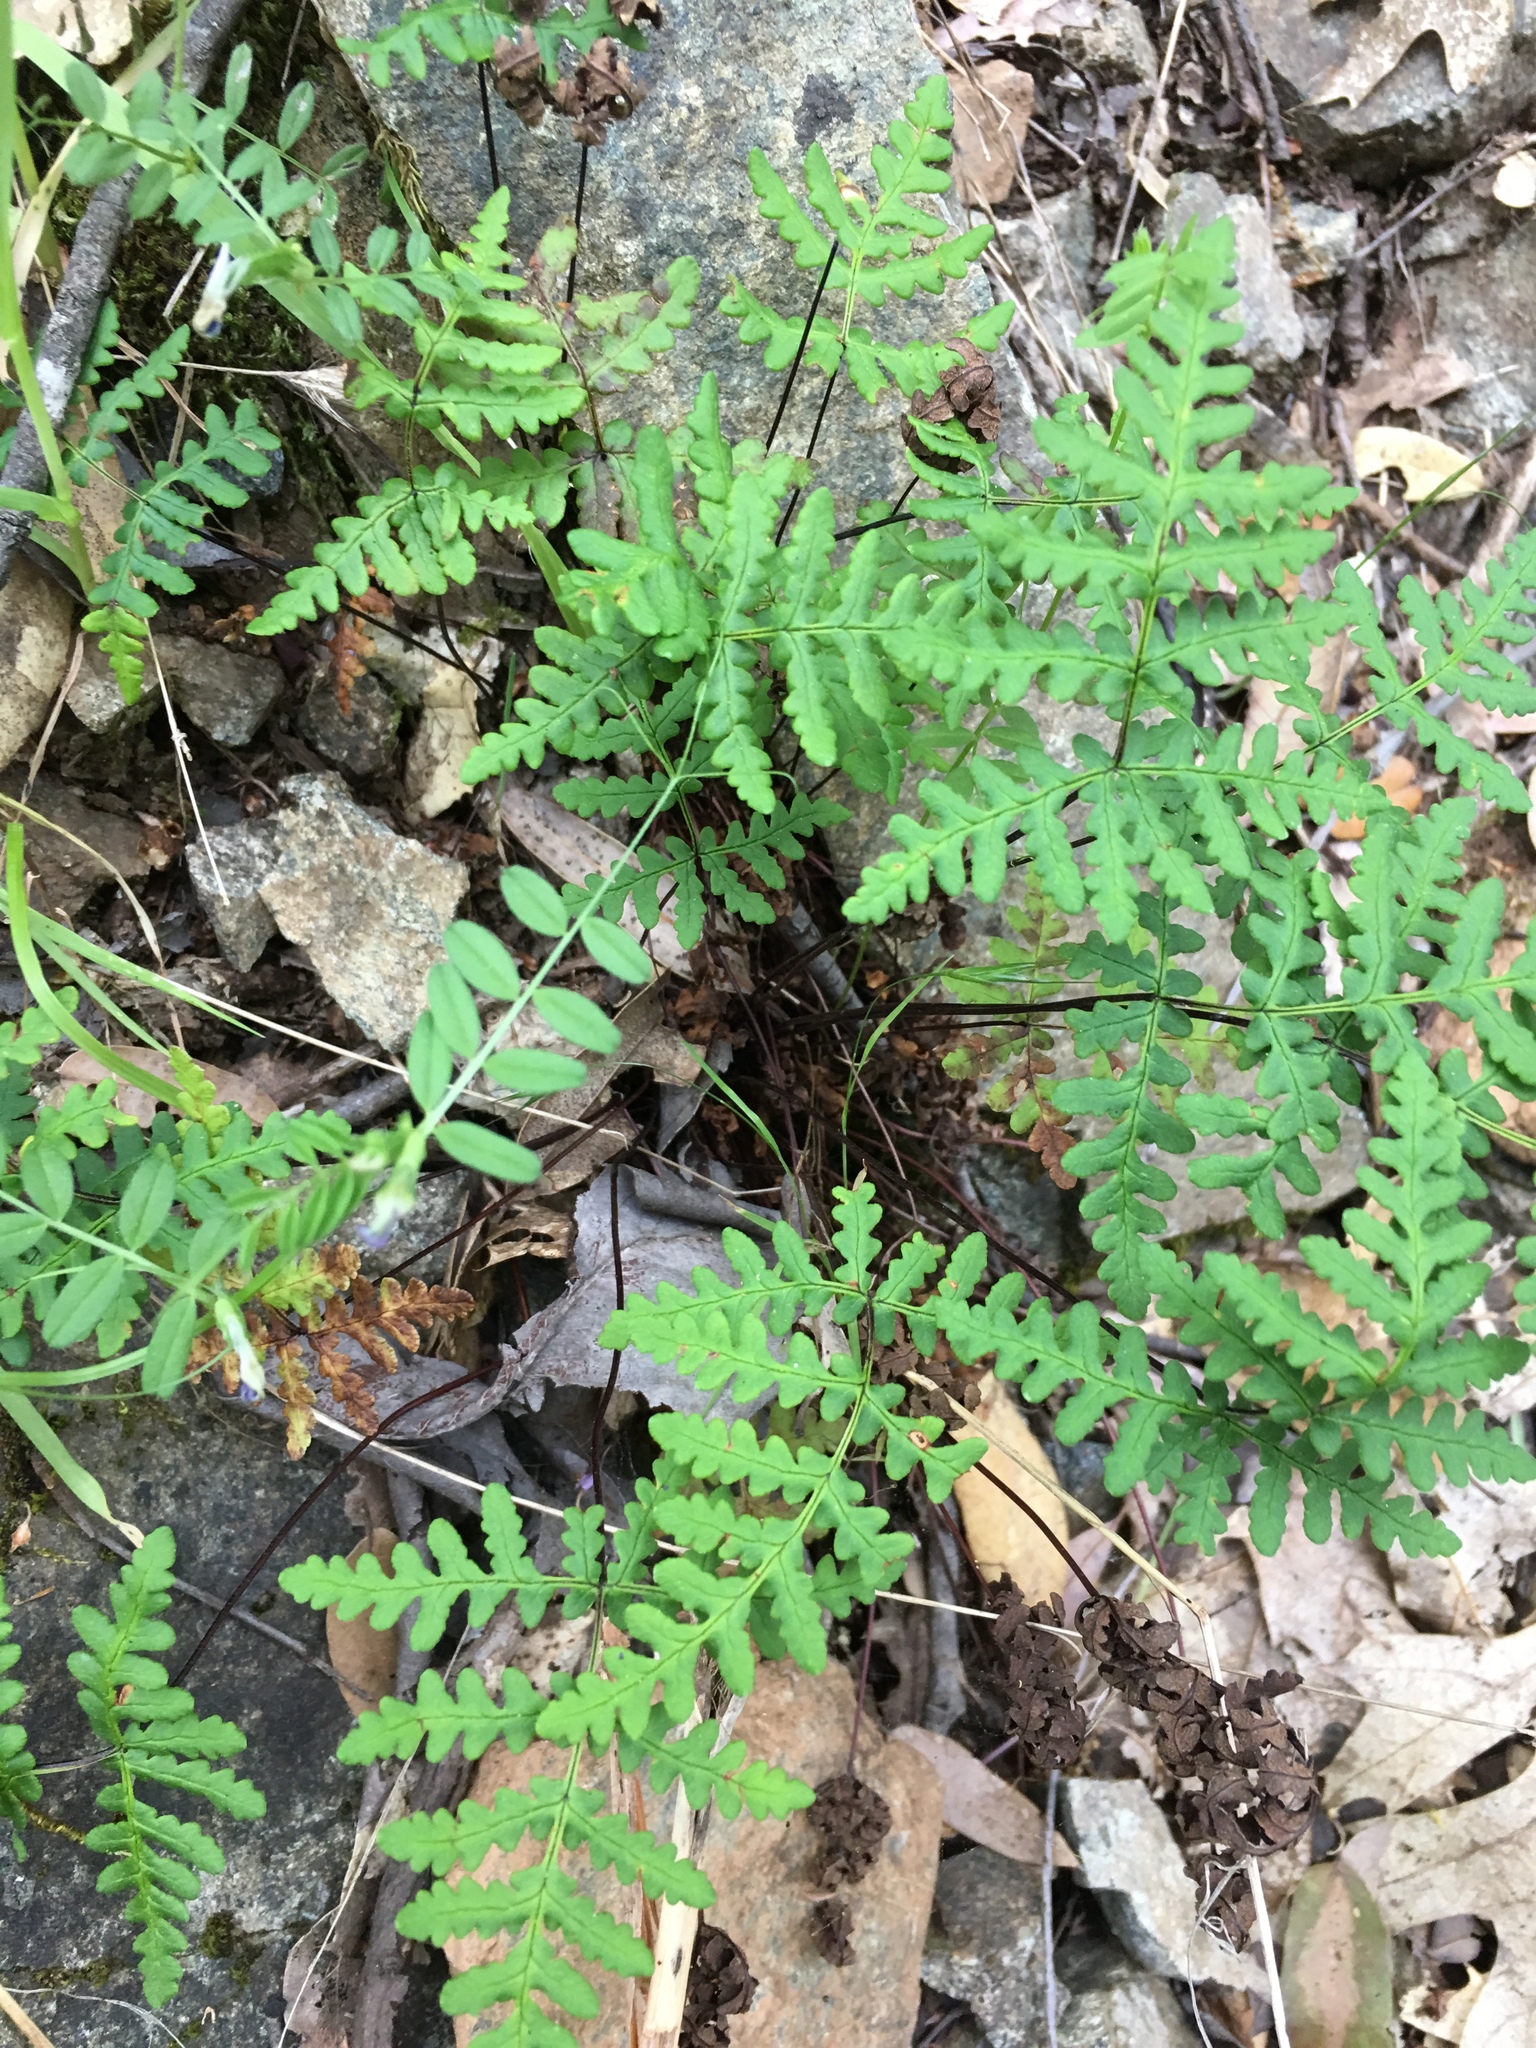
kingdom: Plantae
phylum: Tracheophyta
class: Polypodiopsida
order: Polypodiales
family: Pteridaceae
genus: Pentagramma
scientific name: Pentagramma triangularis
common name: Gold fern
